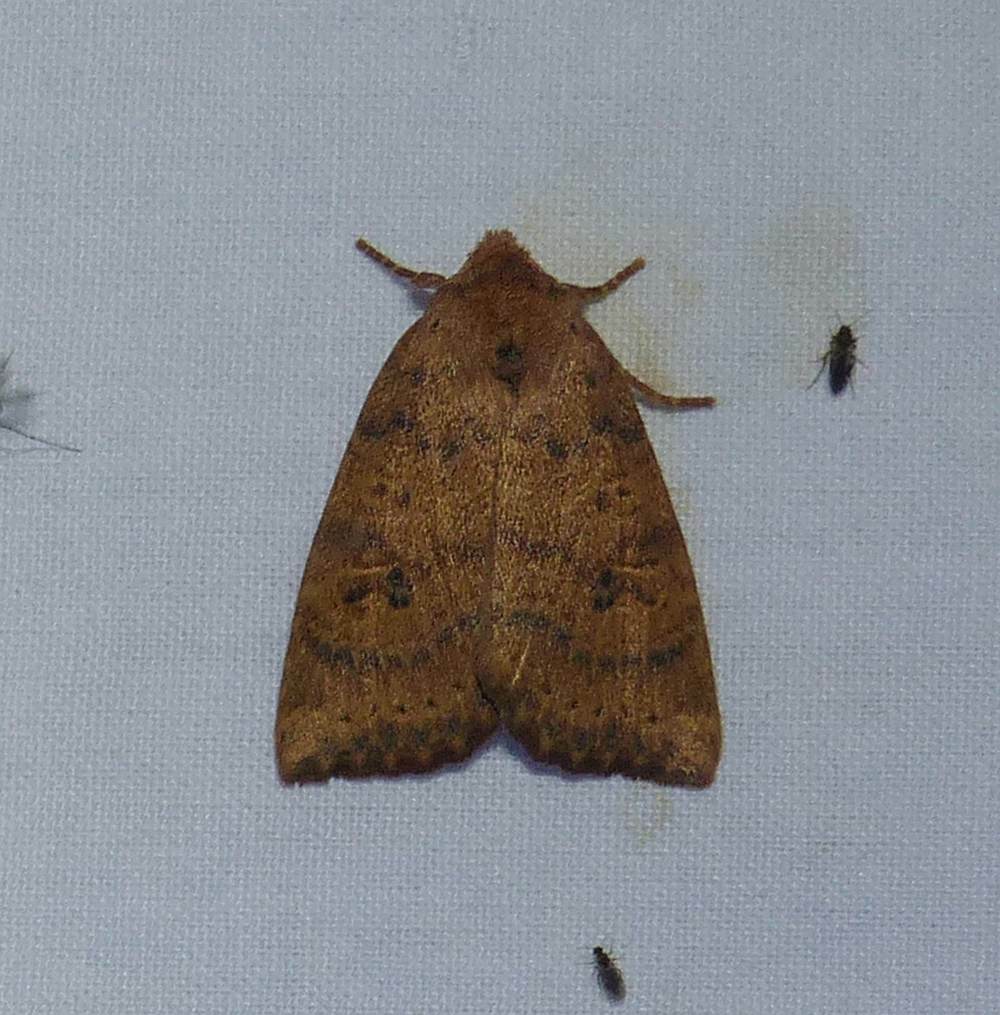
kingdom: Animalia
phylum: Arthropoda
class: Insecta
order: Lepidoptera
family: Noctuidae
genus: Anathix
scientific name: Anathix ralla
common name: Dotted sallow
